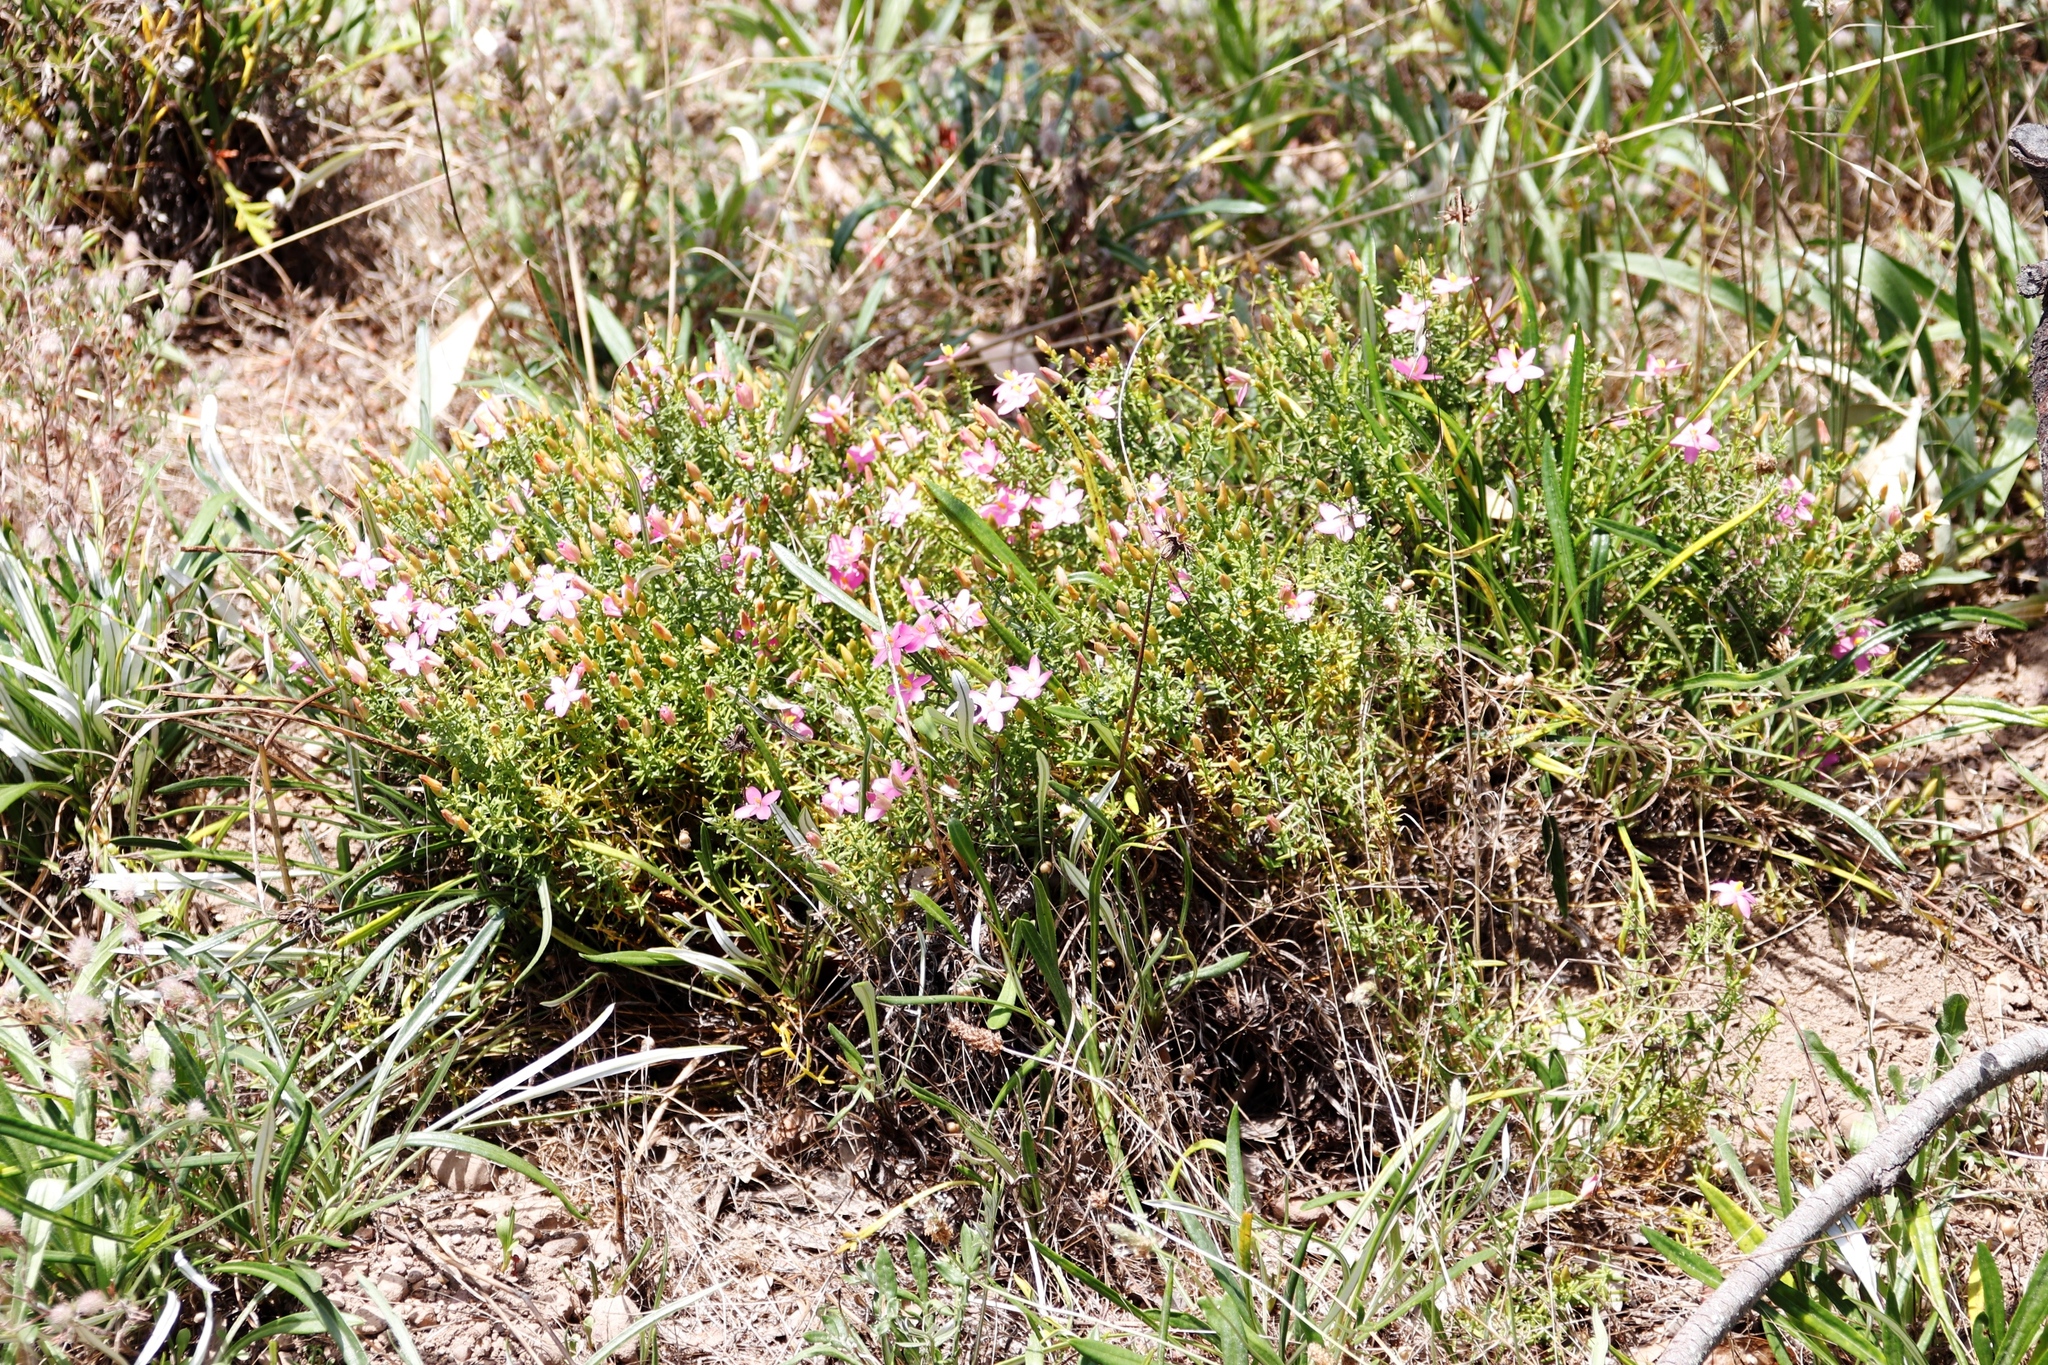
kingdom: Plantae
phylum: Tracheophyta
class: Magnoliopsida
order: Gentianales
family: Gentianaceae
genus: Chironia
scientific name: Chironia baccifera
